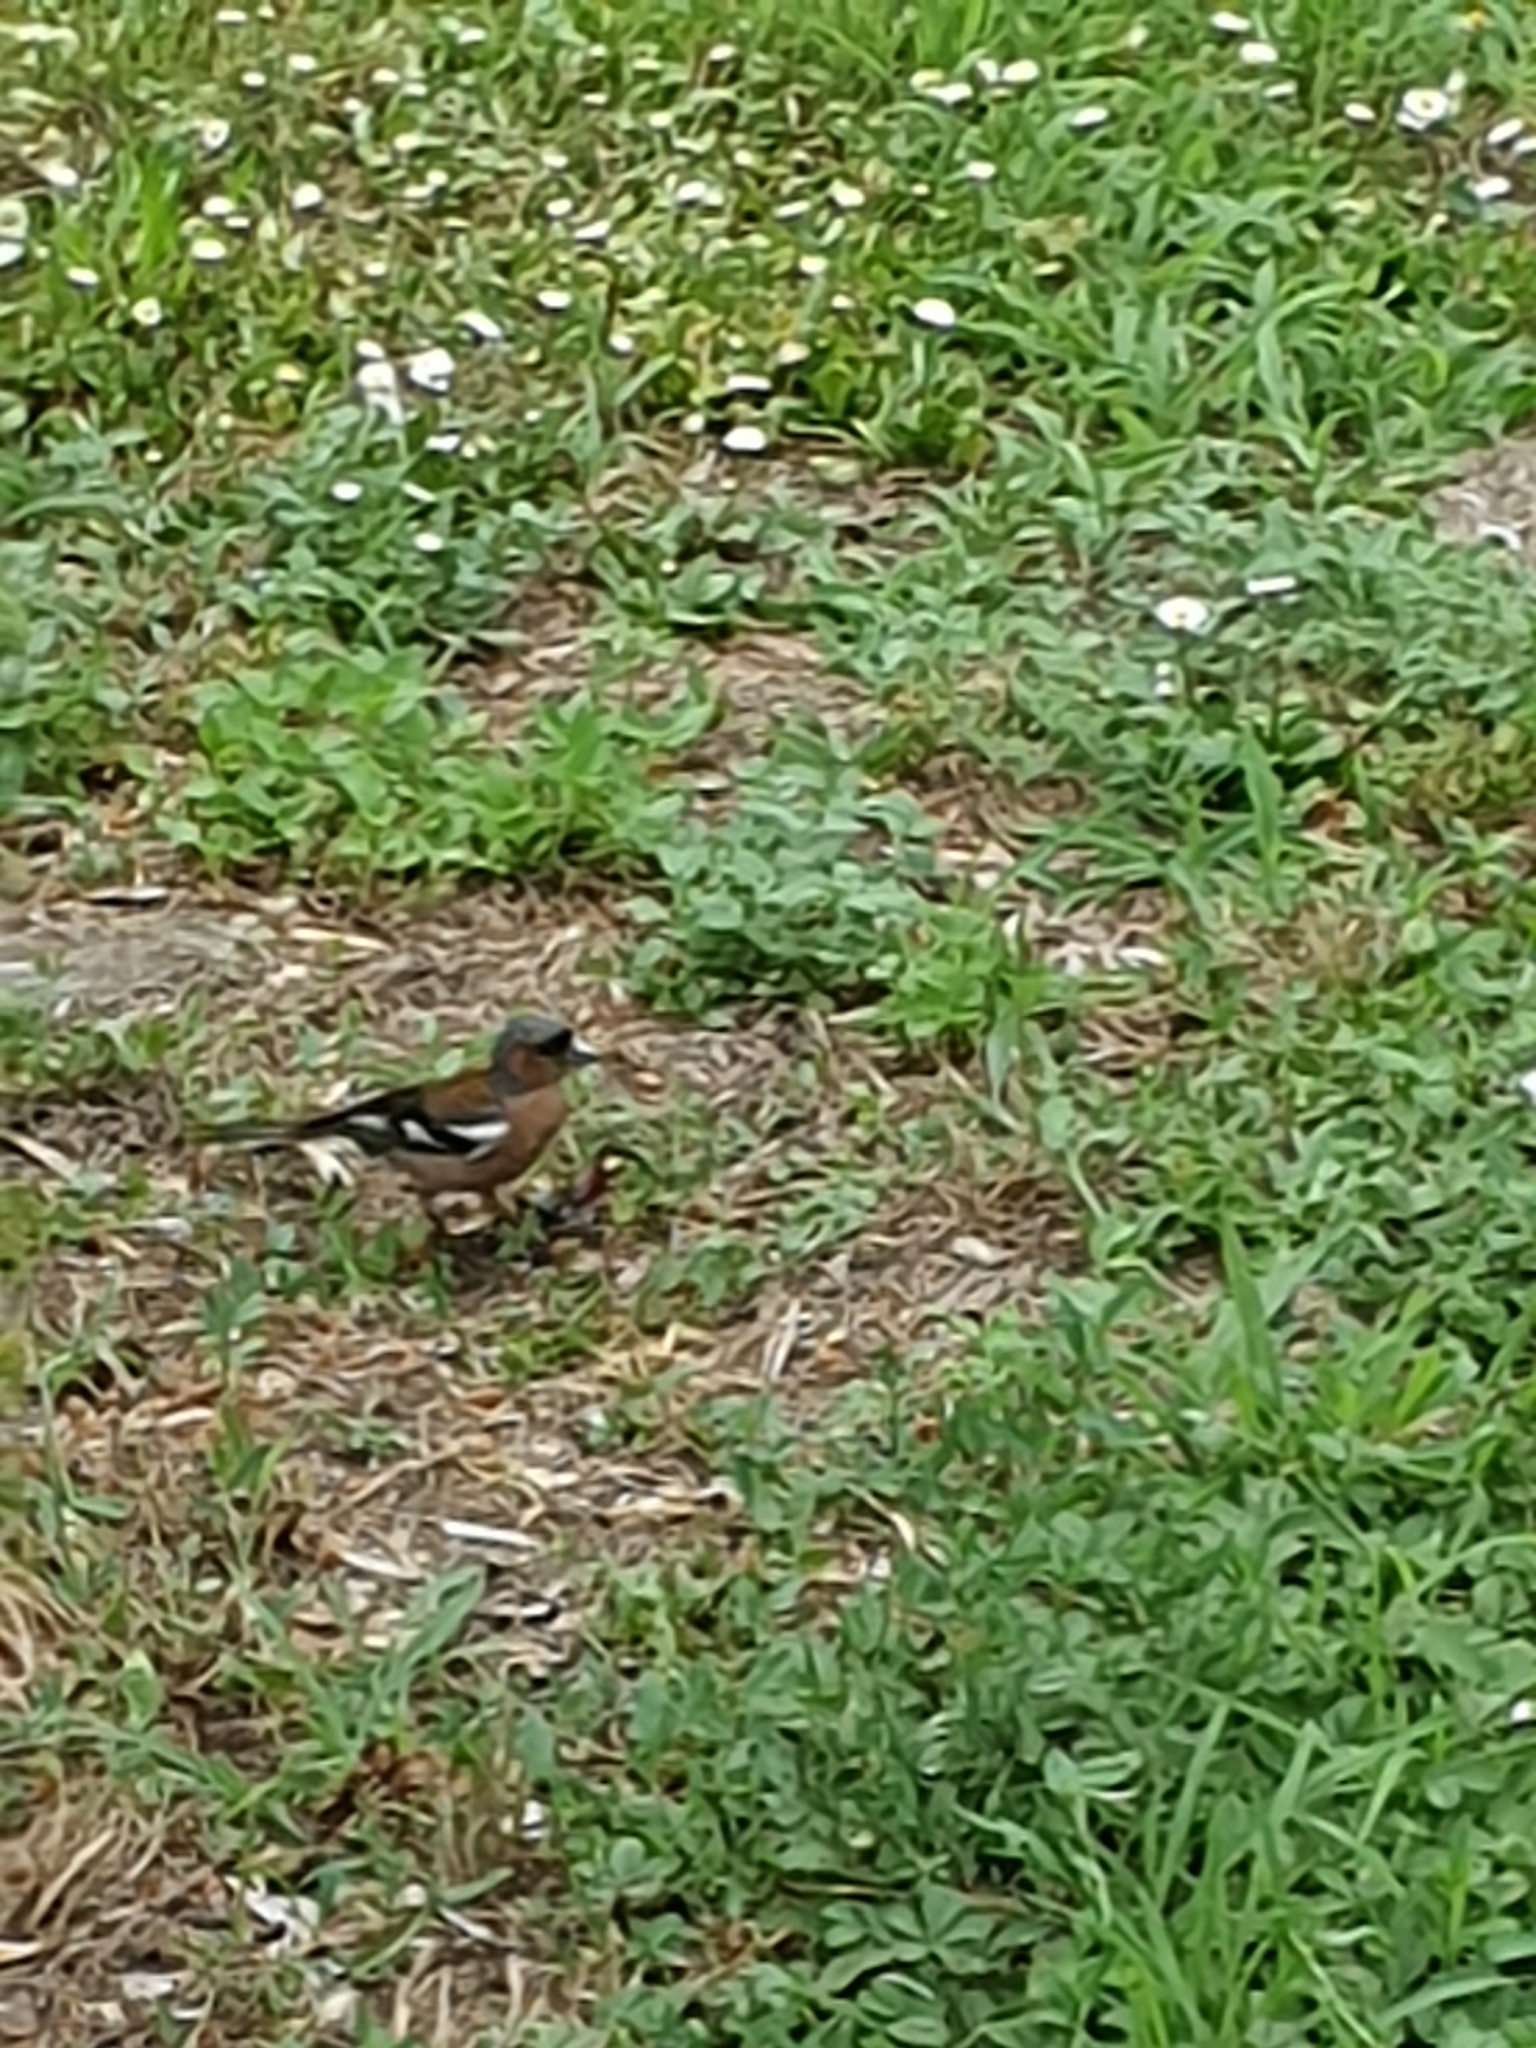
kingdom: Animalia
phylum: Chordata
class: Aves
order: Passeriformes
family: Fringillidae
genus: Fringilla
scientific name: Fringilla coelebs
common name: Common chaffinch
